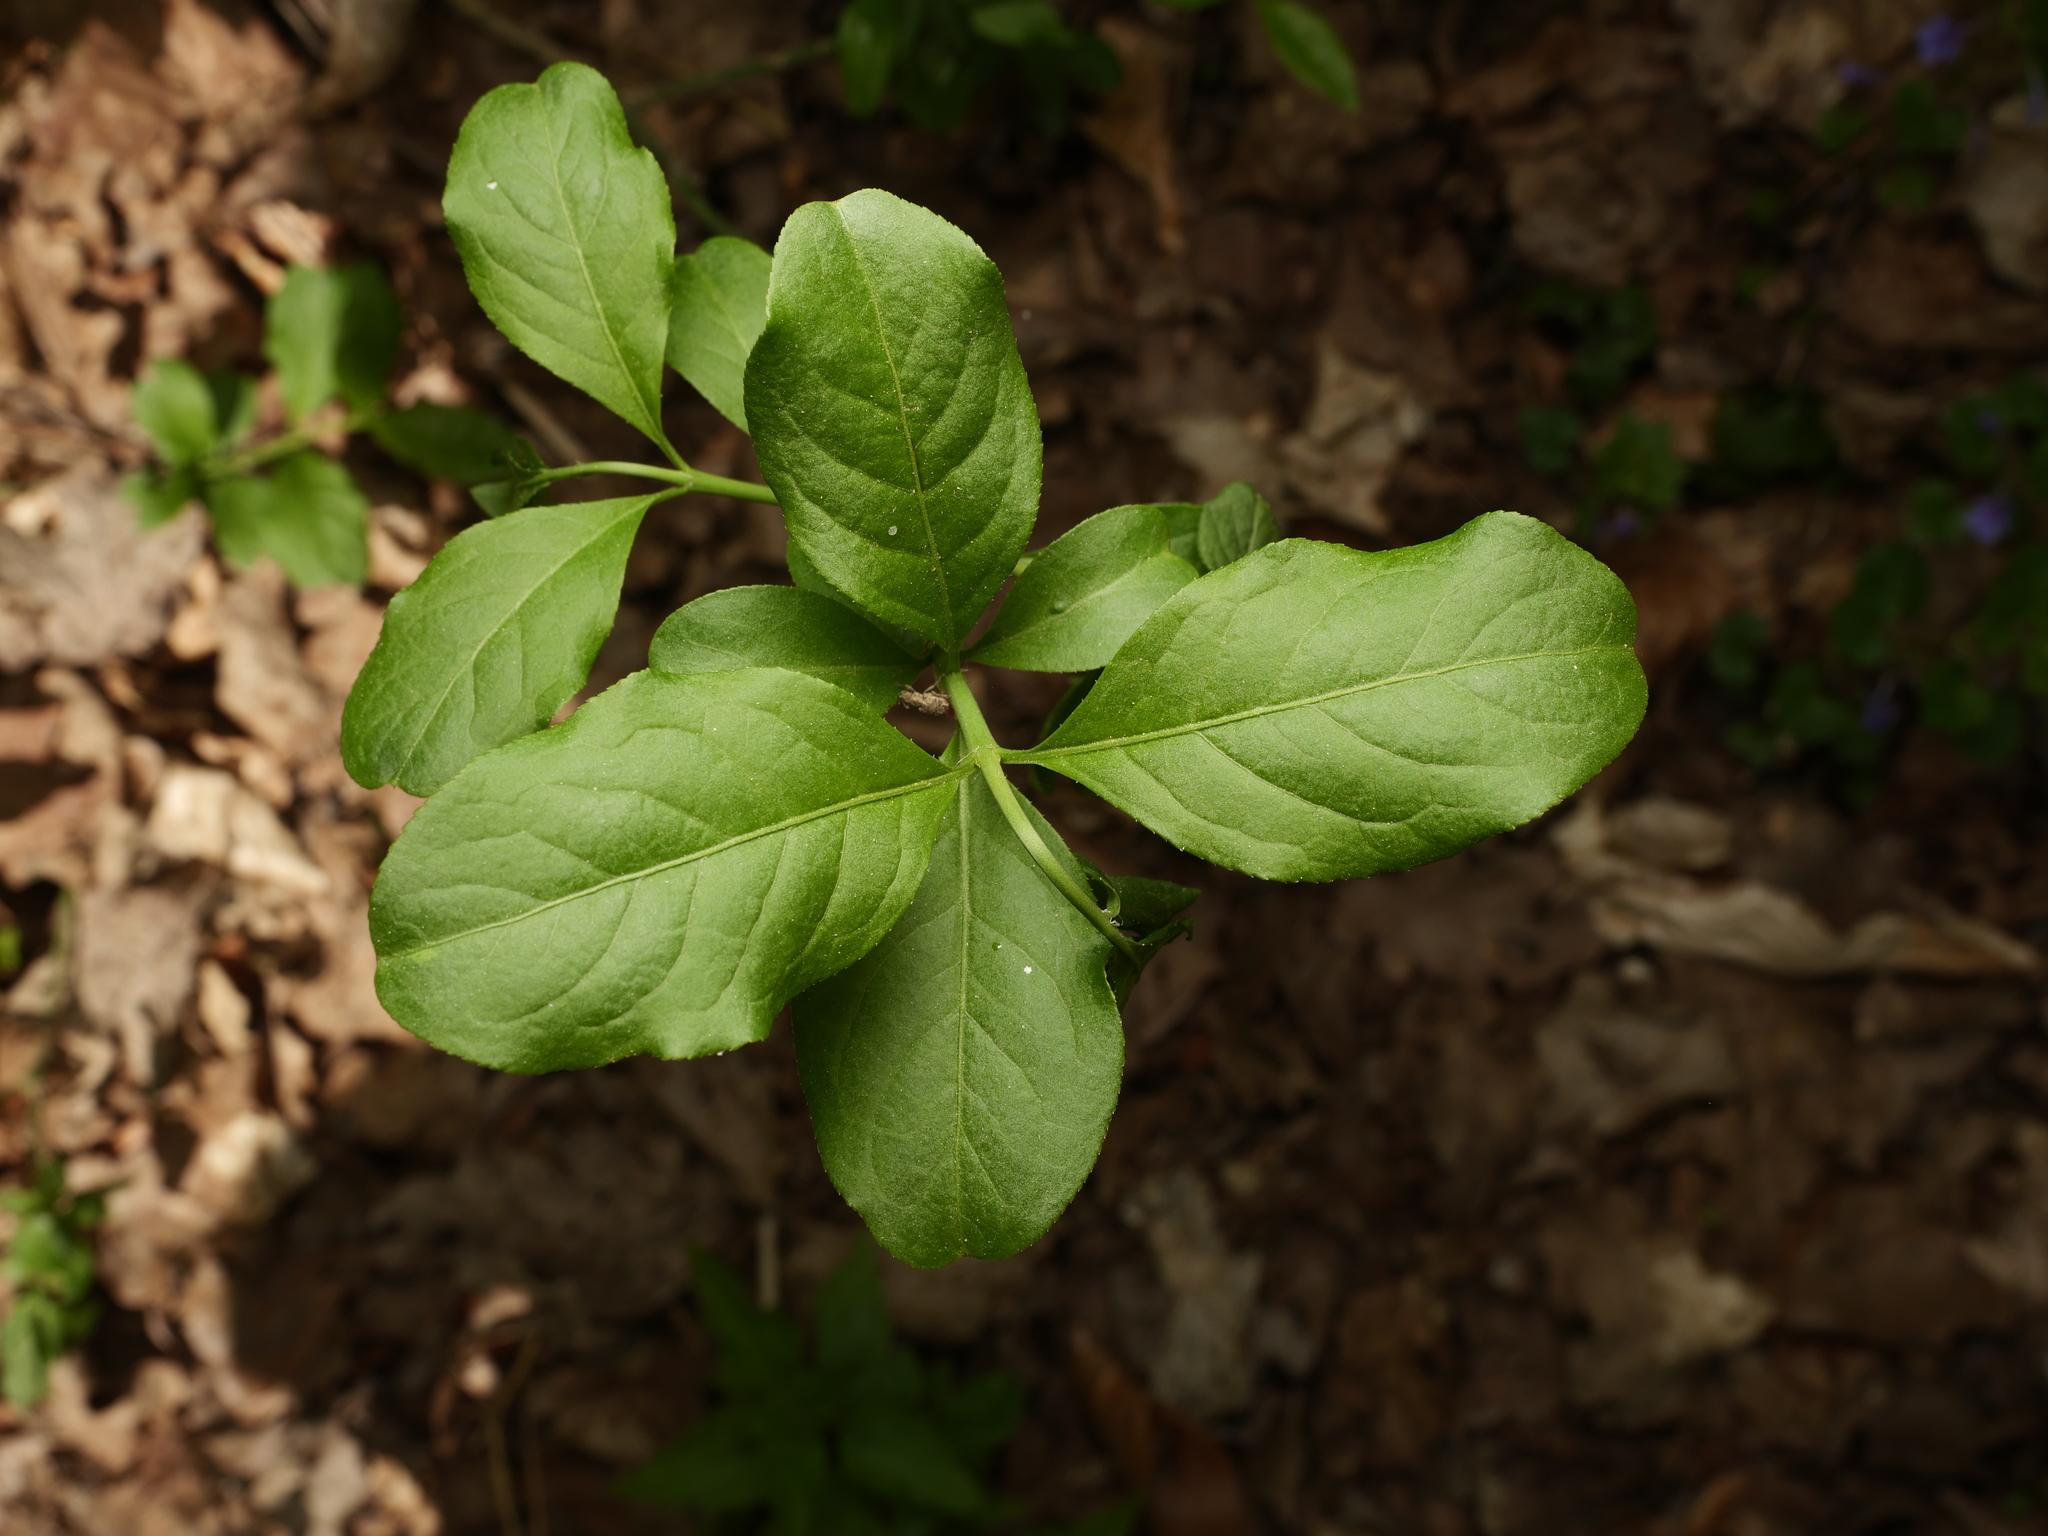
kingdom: Plantae
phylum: Tracheophyta
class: Magnoliopsida
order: Celastrales
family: Celastraceae
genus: Euonymus
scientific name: Euonymus europaeus
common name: Spindle
